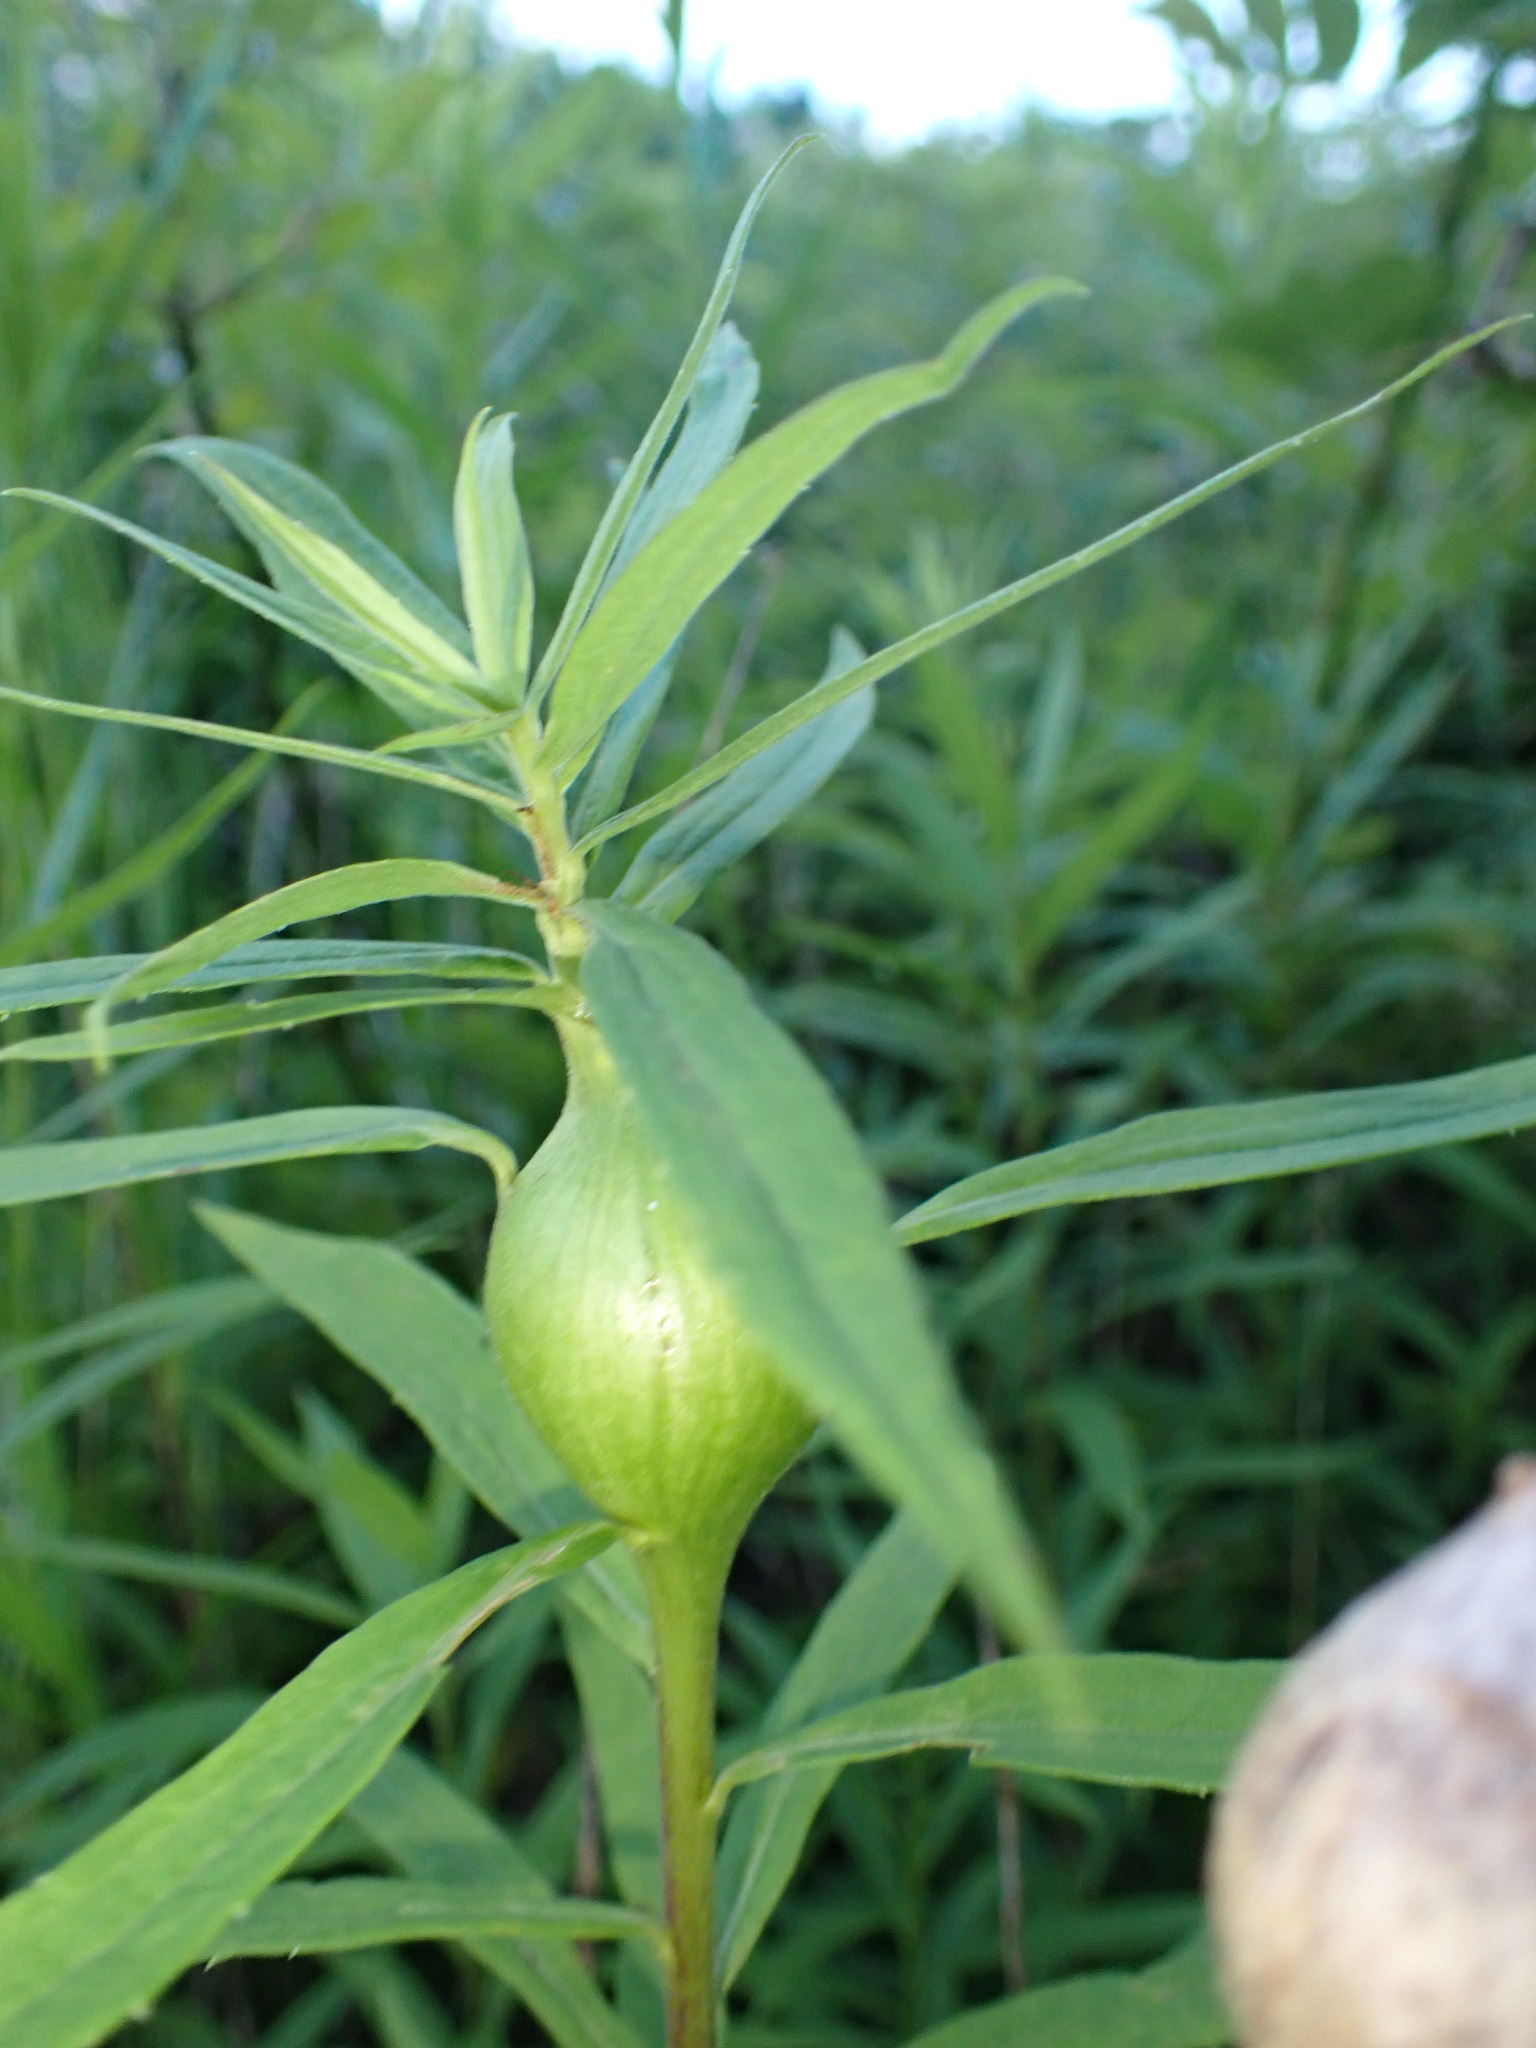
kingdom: Animalia
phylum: Arthropoda
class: Insecta
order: Diptera
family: Tephritidae
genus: Eurosta
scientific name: Eurosta solidaginis
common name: Goldenrod gall fly
